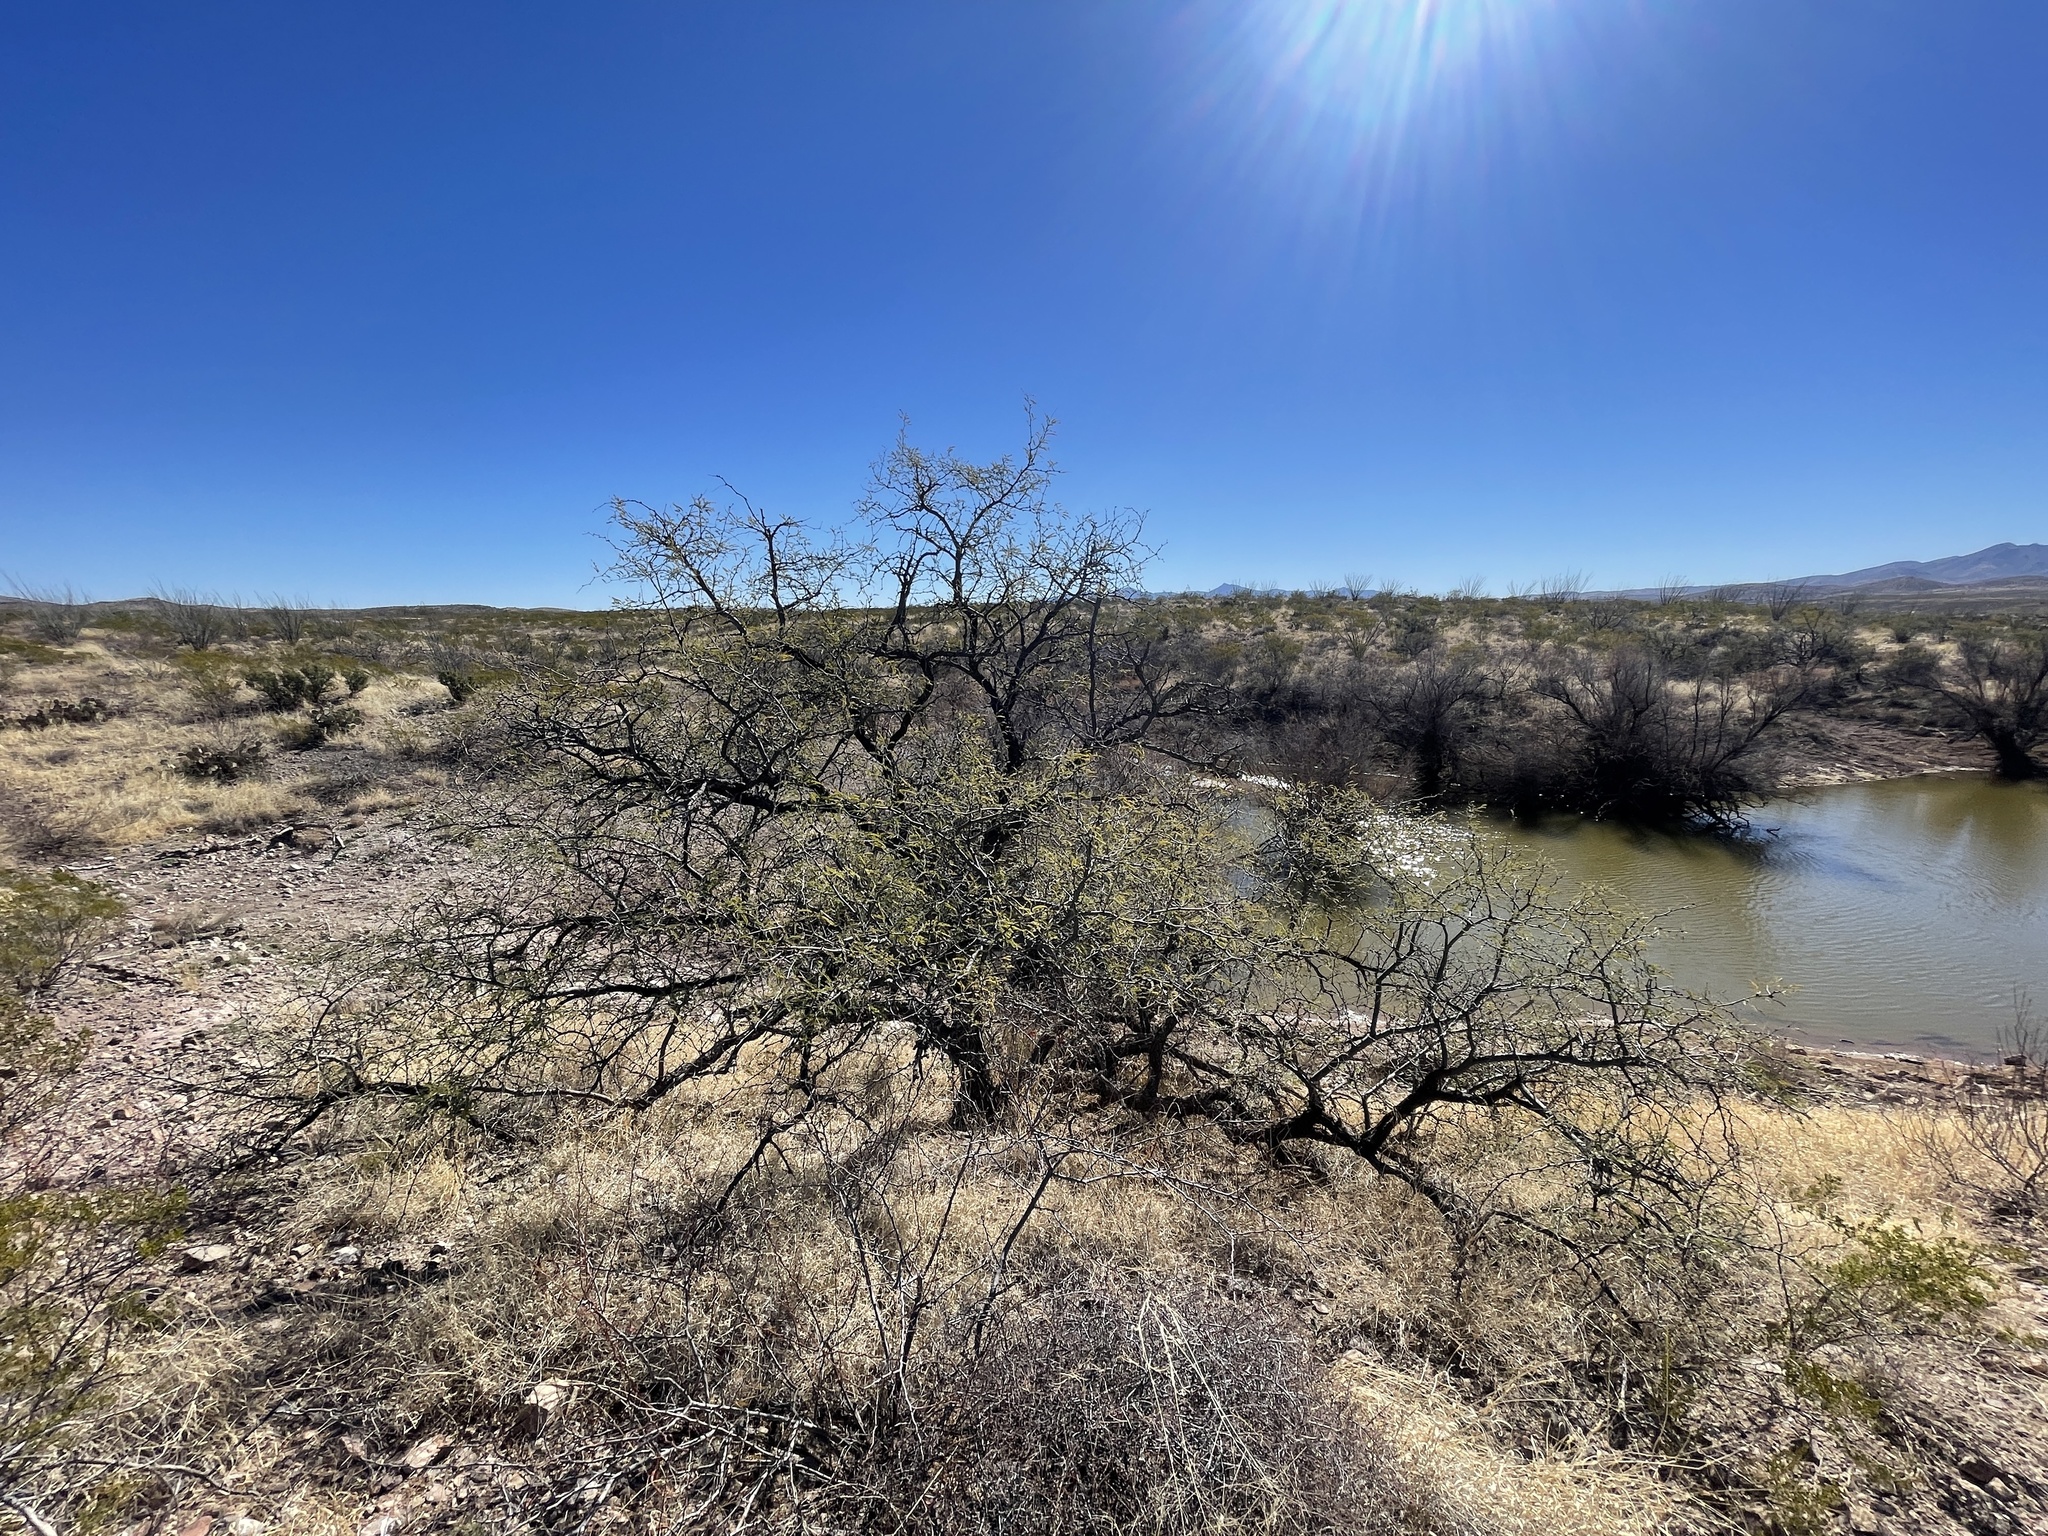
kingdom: Plantae
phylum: Tracheophyta
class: Magnoliopsida
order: Fabales
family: Fabaceae
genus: Prosopis
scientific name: Prosopis velutina
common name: Velvet mesquite
